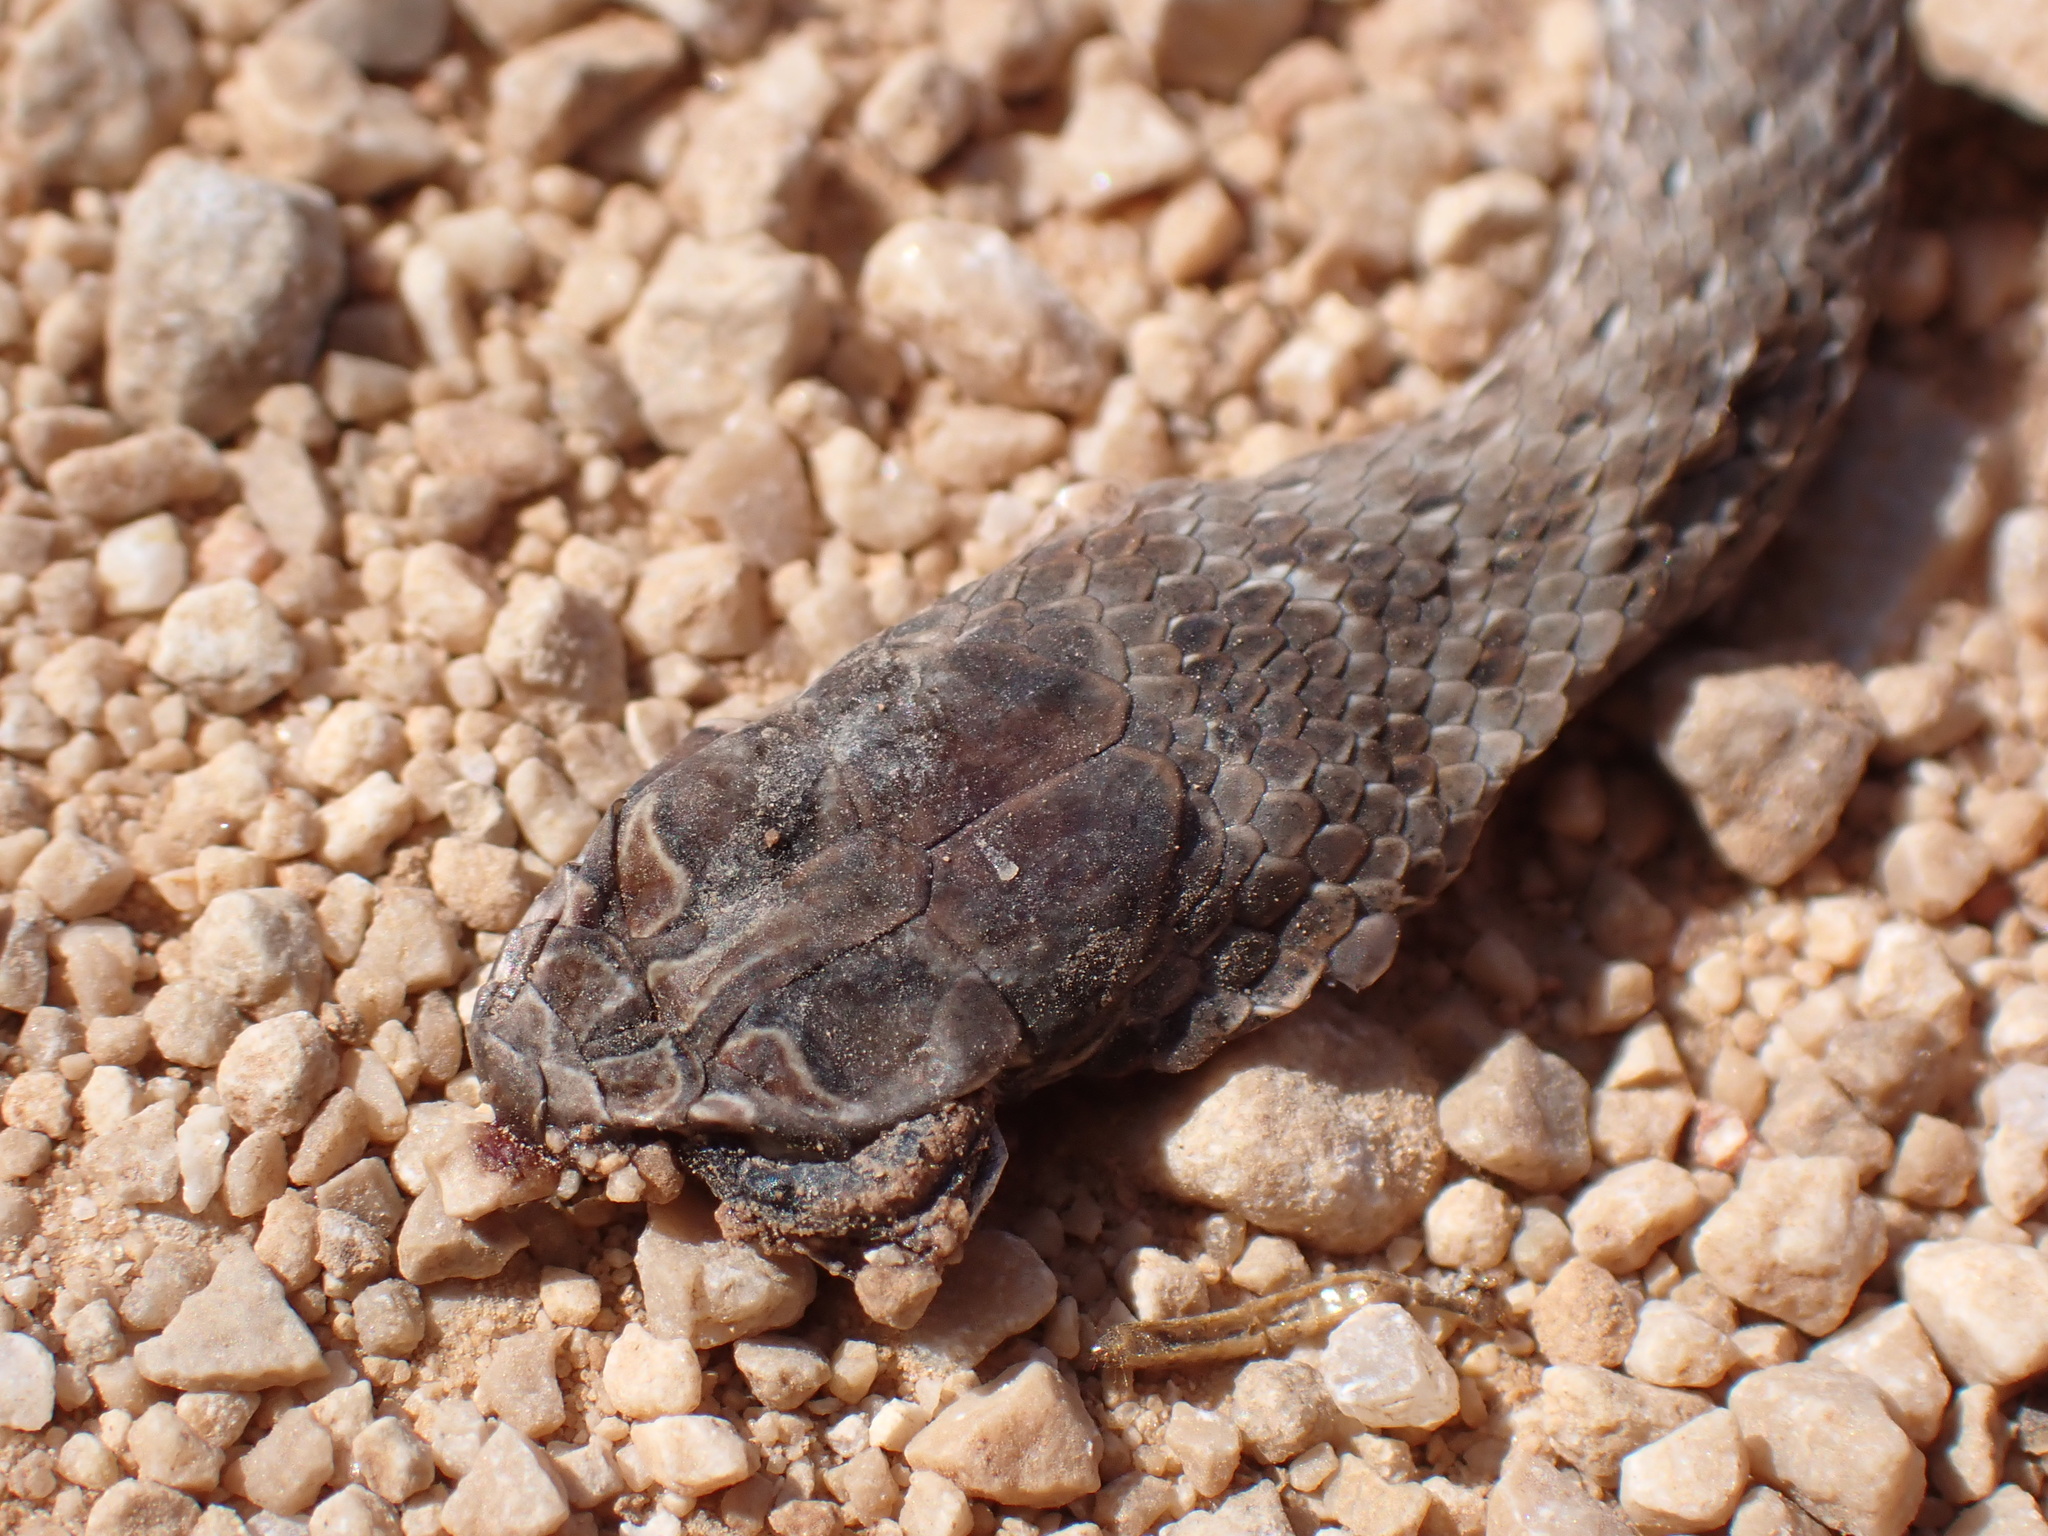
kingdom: Animalia
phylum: Chordata
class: Squamata
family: Psammophiidae
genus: Malpolon
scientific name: Malpolon insignitus
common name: Eastern montpellier snake
